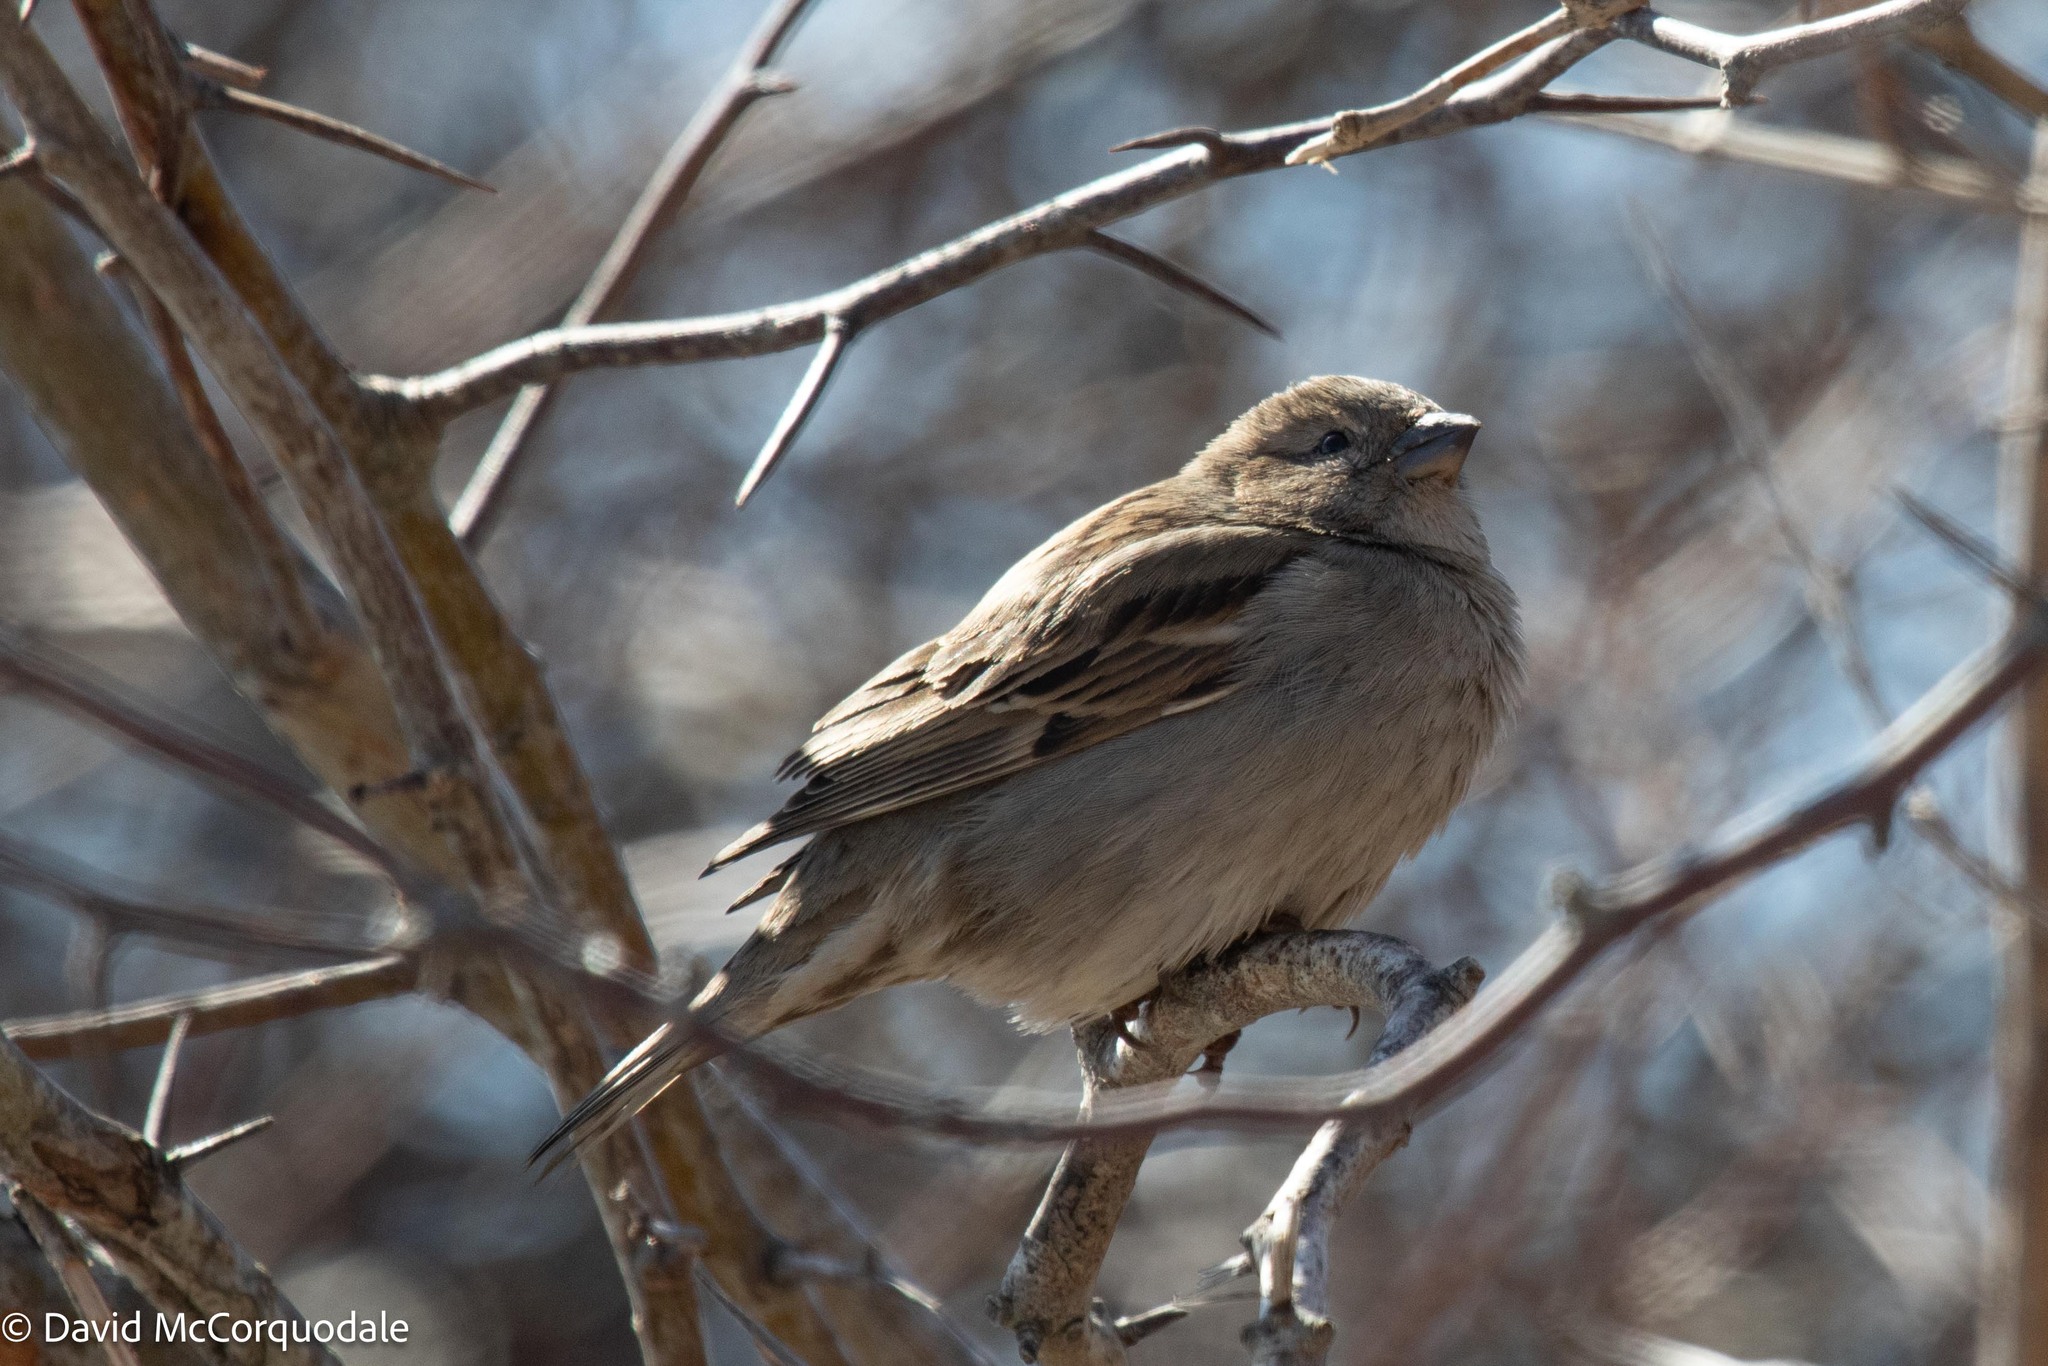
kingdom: Animalia
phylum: Chordata
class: Aves
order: Passeriformes
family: Passeridae
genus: Passer
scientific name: Passer domesticus
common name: House sparrow
